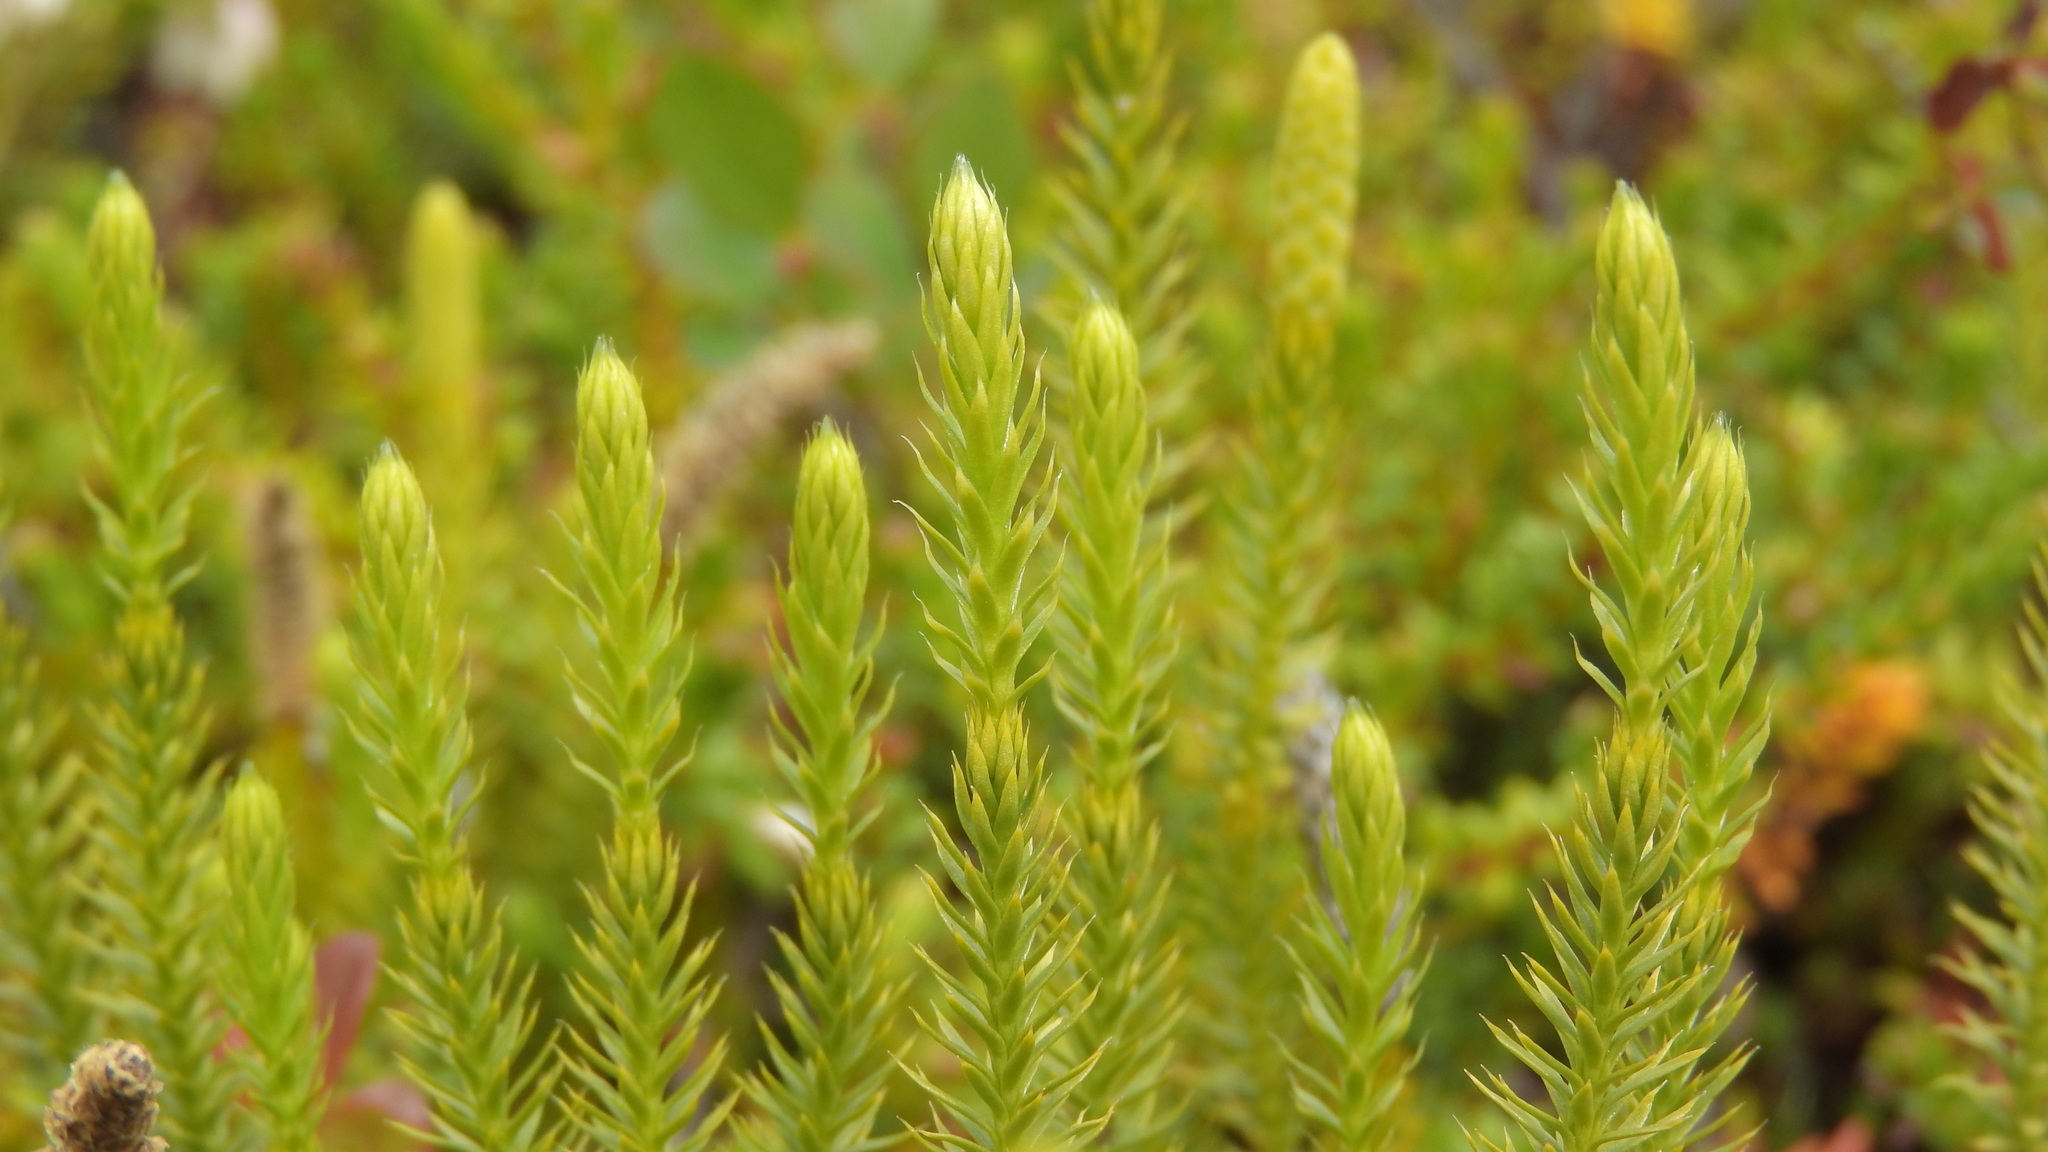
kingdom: Plantae
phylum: Tracheophyta
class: Lycopodiopsida
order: Lycopodiales
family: Lycopodiaceae
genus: Spinulum
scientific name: Spinulum annotinum
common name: Interrupted club-moss
